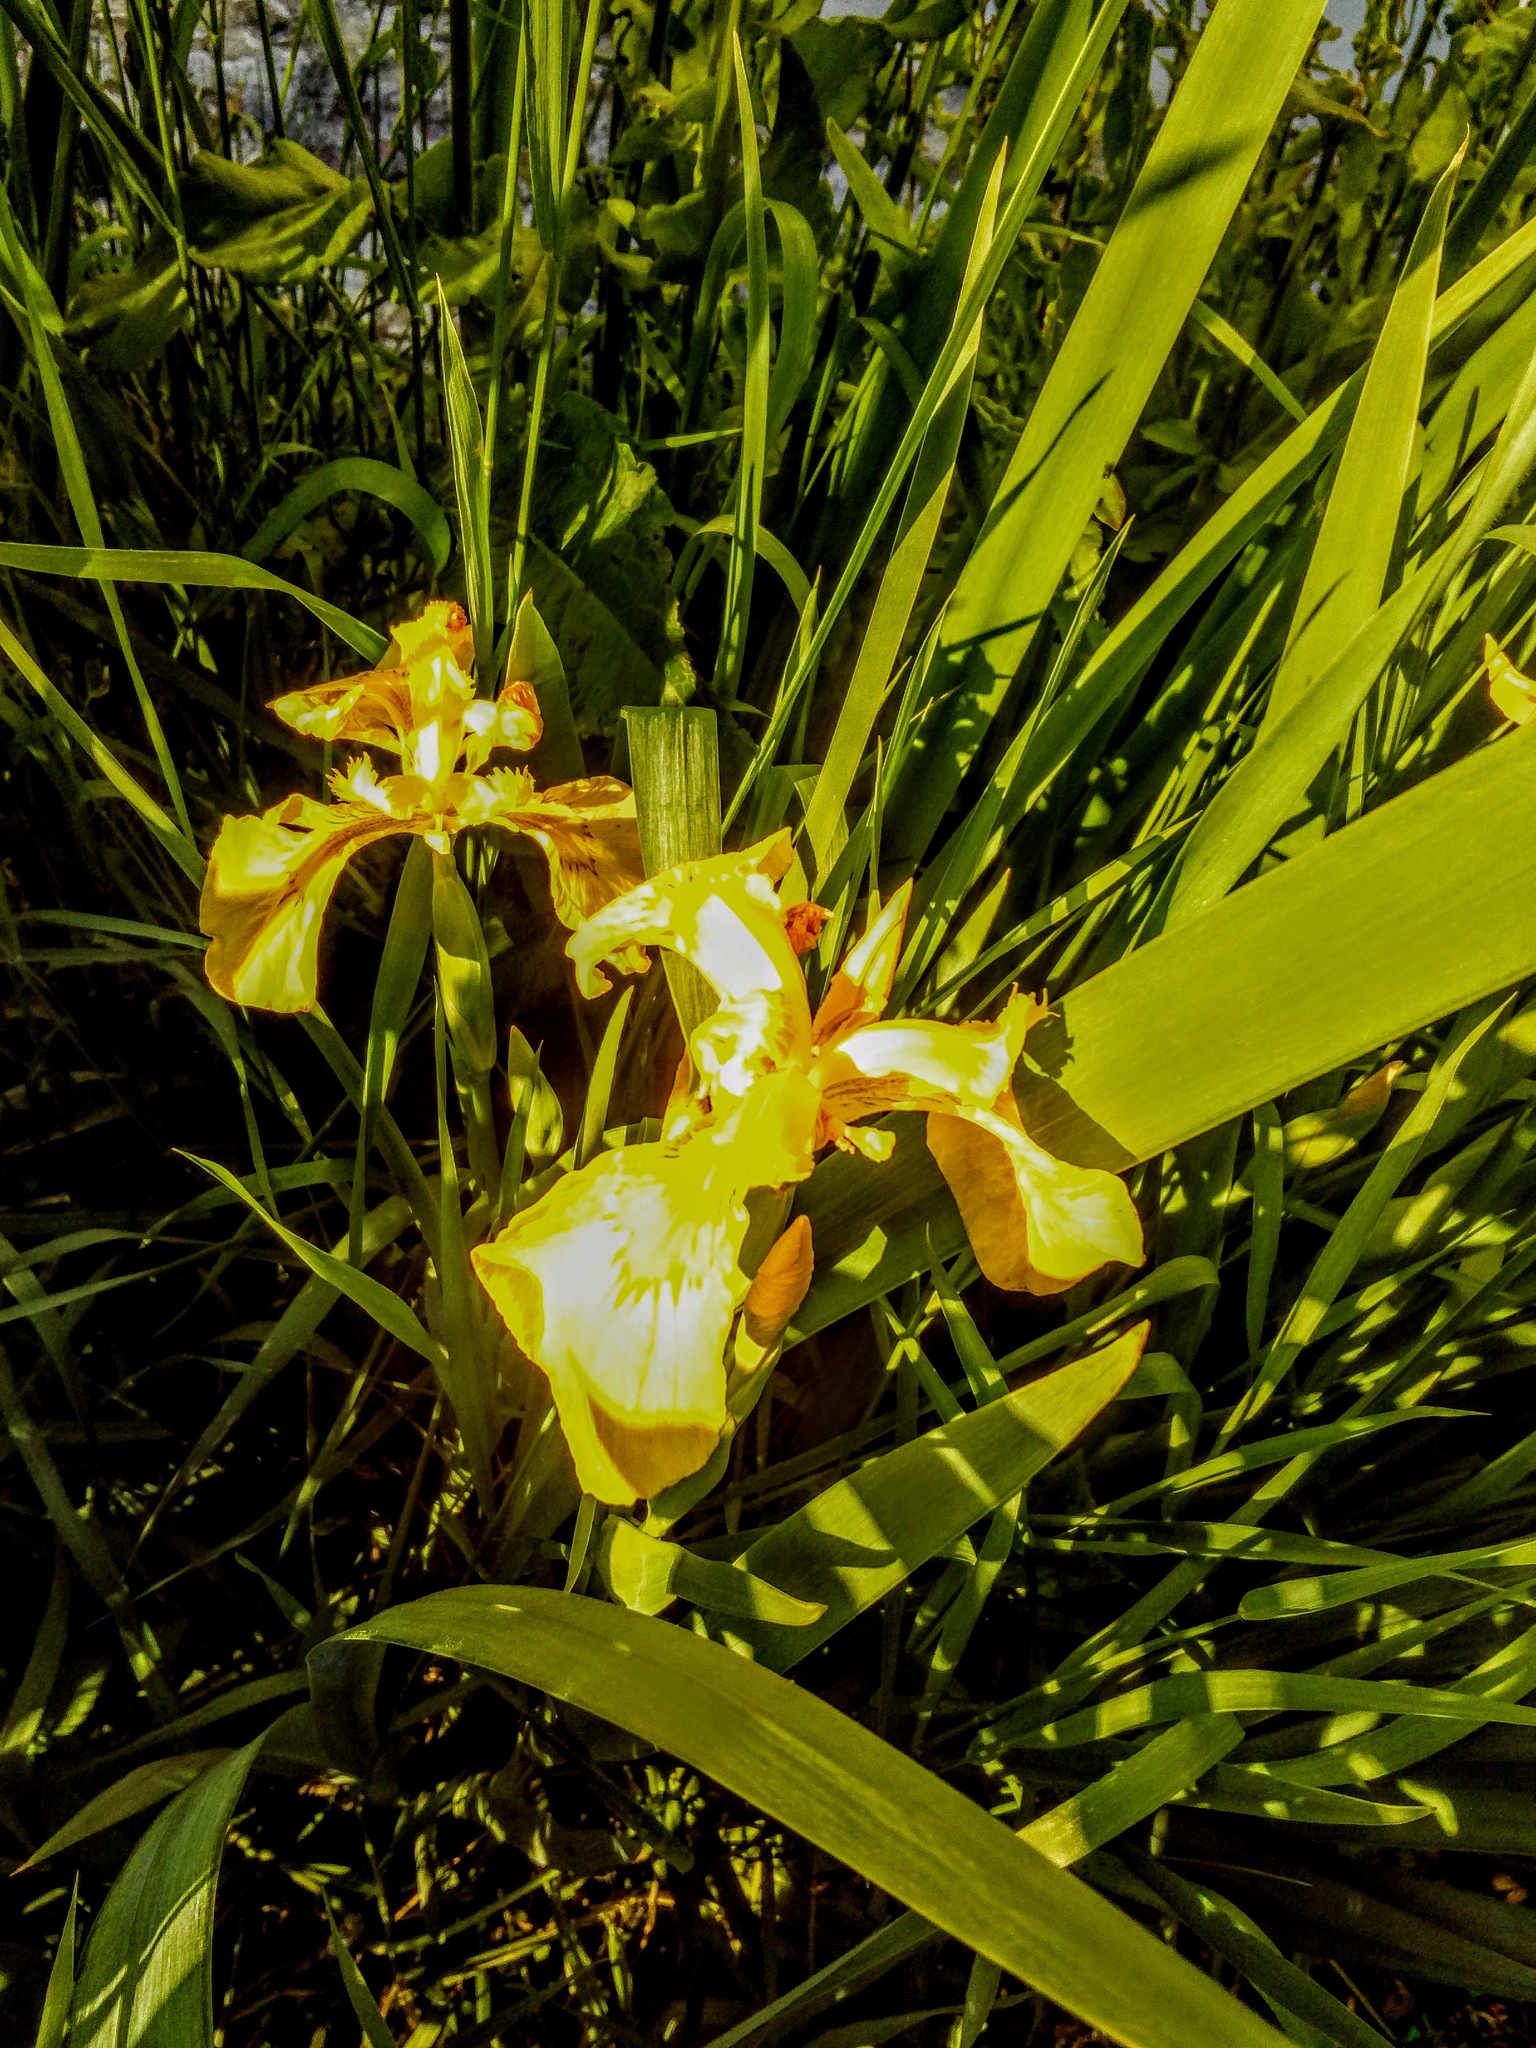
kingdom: Plantae
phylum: Tracheophyta
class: Liliopsida
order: Asparagales
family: Iridaceae
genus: Iris
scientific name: Iris pseudacorus
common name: Yellow flag
